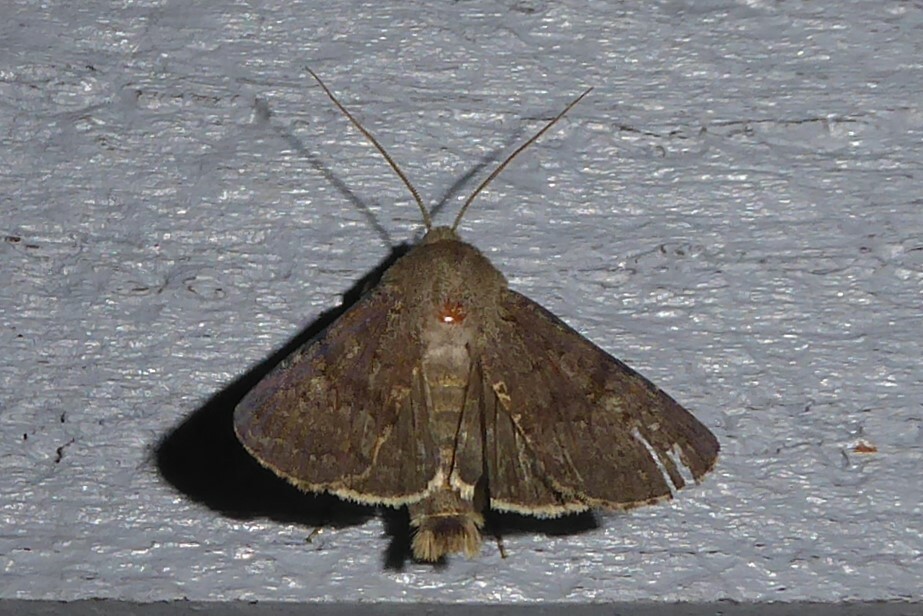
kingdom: Animalia
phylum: Arthropoda
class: Insecta
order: Lepidoptera
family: Noctuidae
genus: Ichneutica
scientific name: Ichneutica moderata
